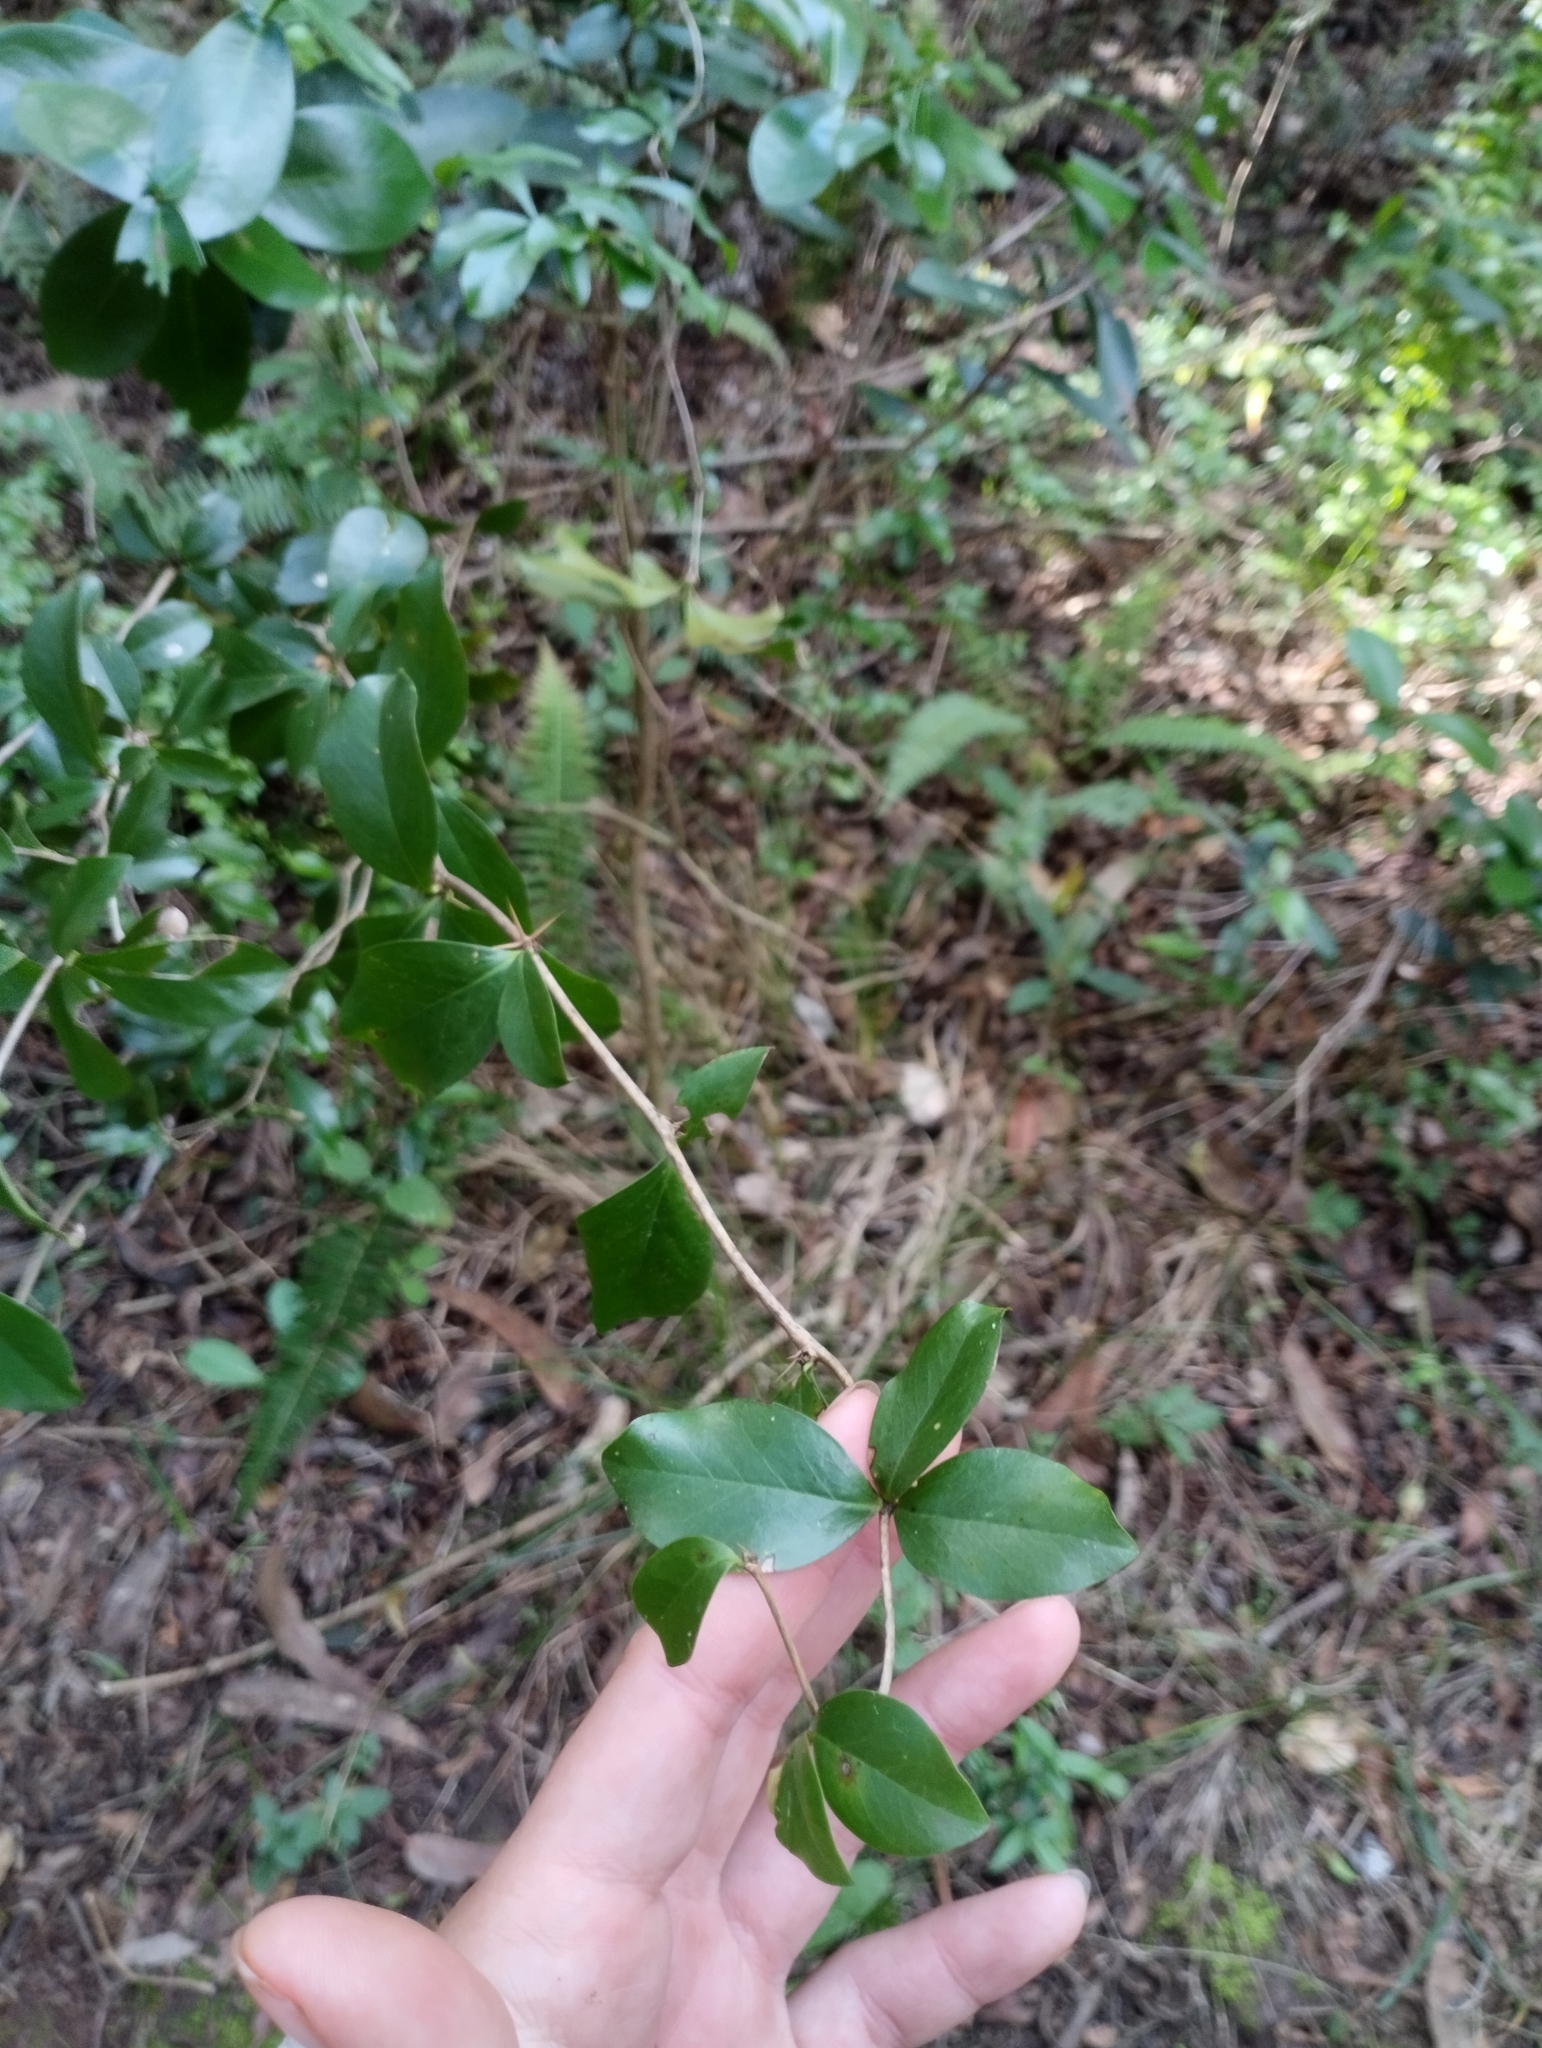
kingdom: Plantae
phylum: Tracheophyta
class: Magnoliopsida
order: Ranunculales
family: Berberidaceae
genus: Berberis
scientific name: Berberis laurina
